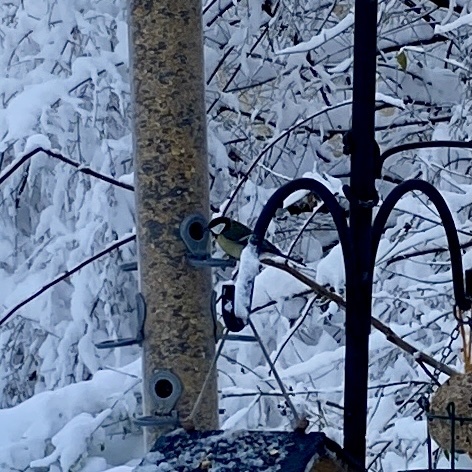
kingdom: Animalia
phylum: Chordata
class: Aves
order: Passeriformes
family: Paridae
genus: Parus
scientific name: Parus major
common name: Great tit
